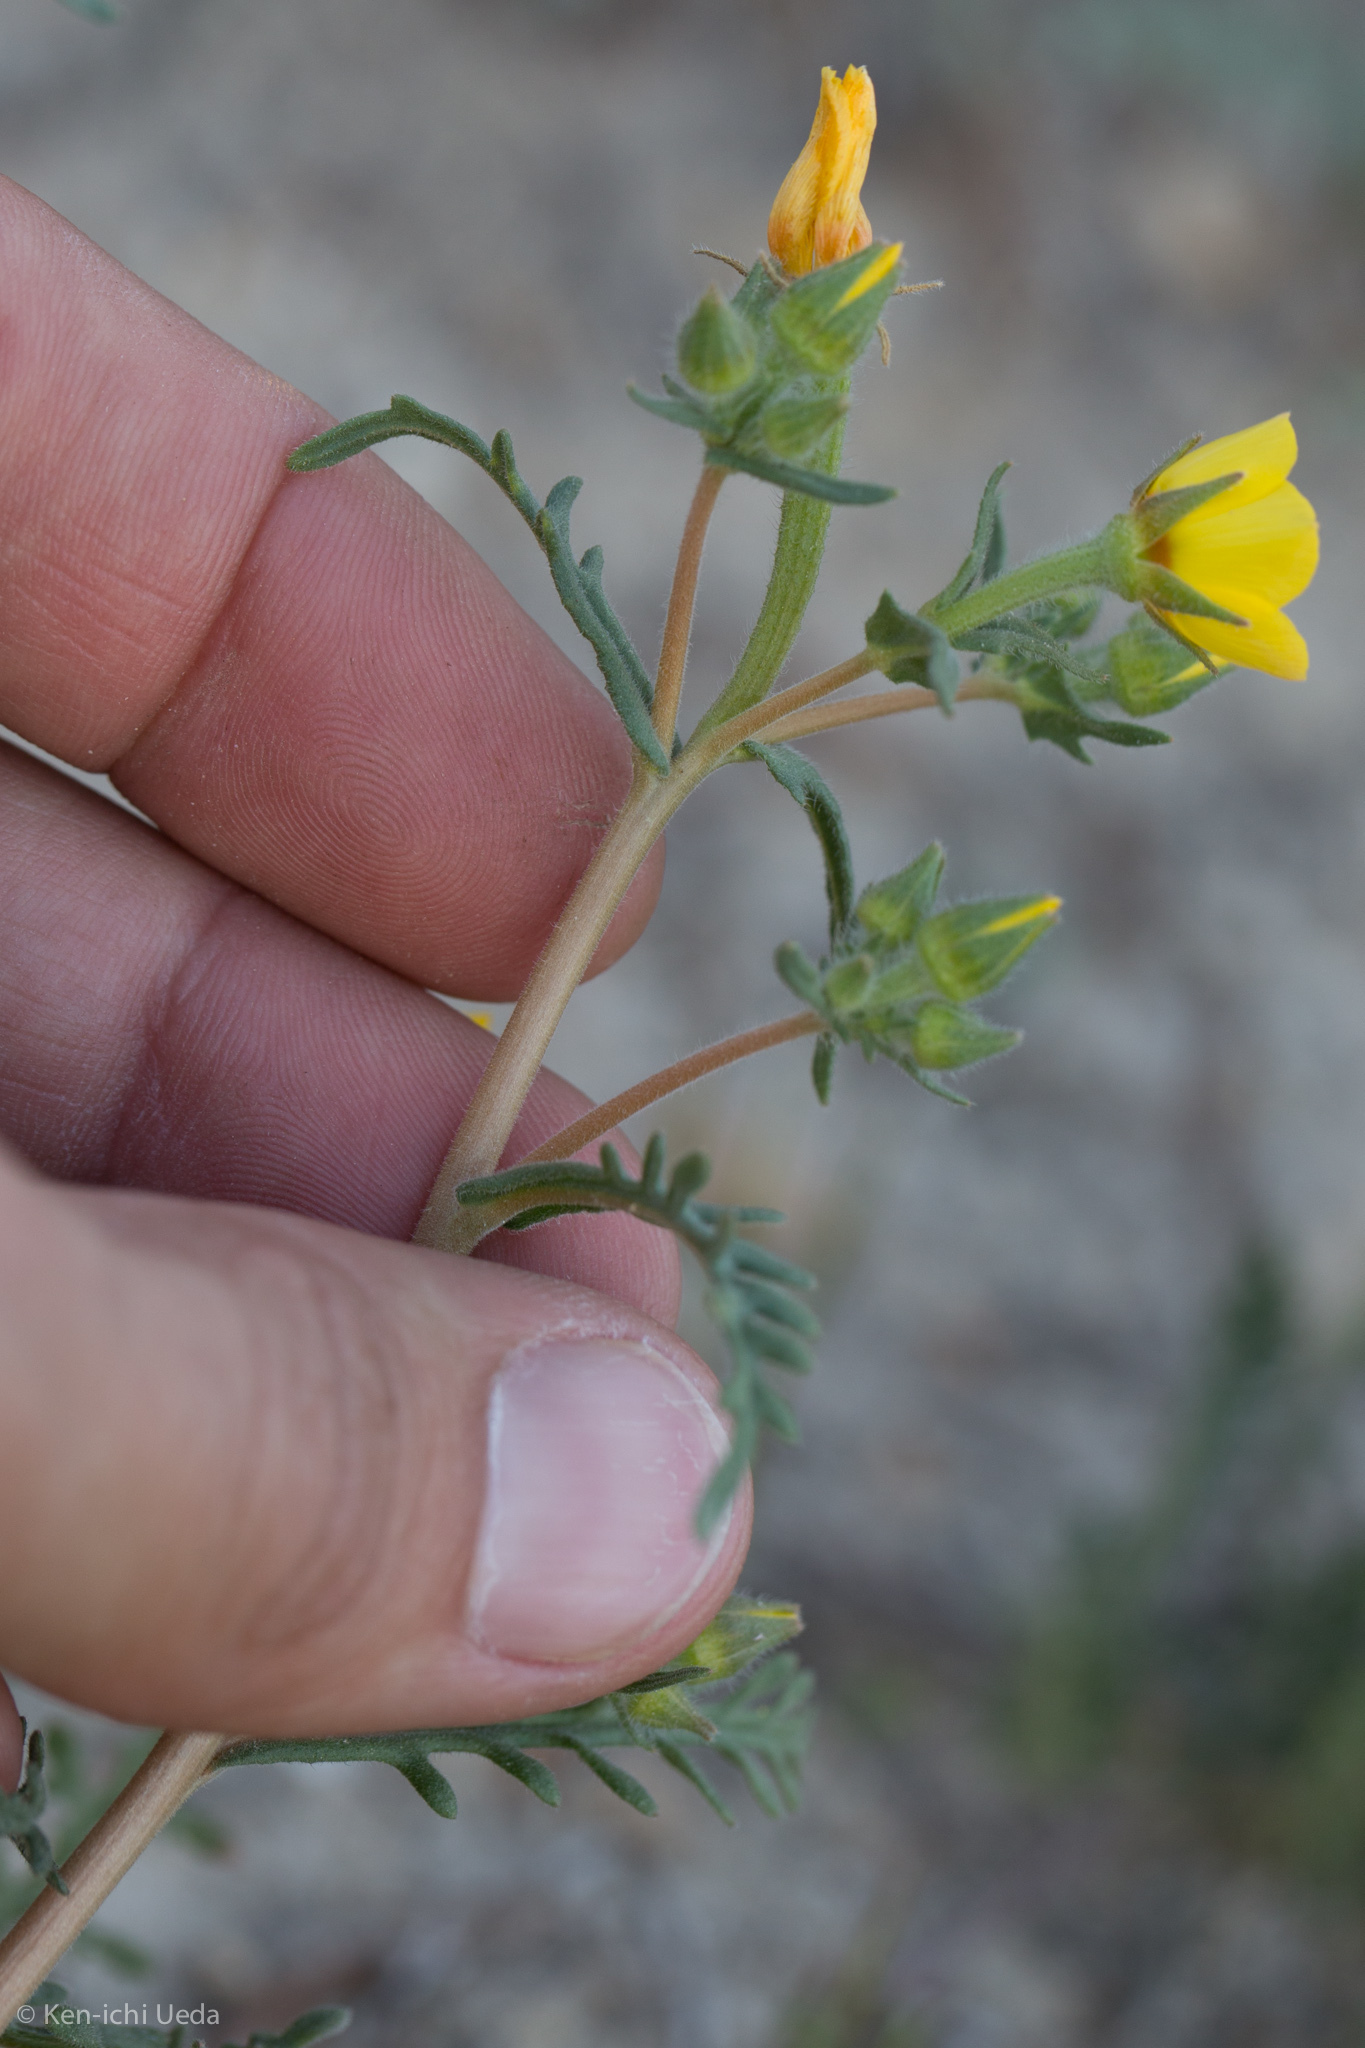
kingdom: Plantae
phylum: Tracheophyta
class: Magnoliopsida
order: Cornales
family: Loasaceae
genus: Mentzelia
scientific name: Mentzelia affinis
